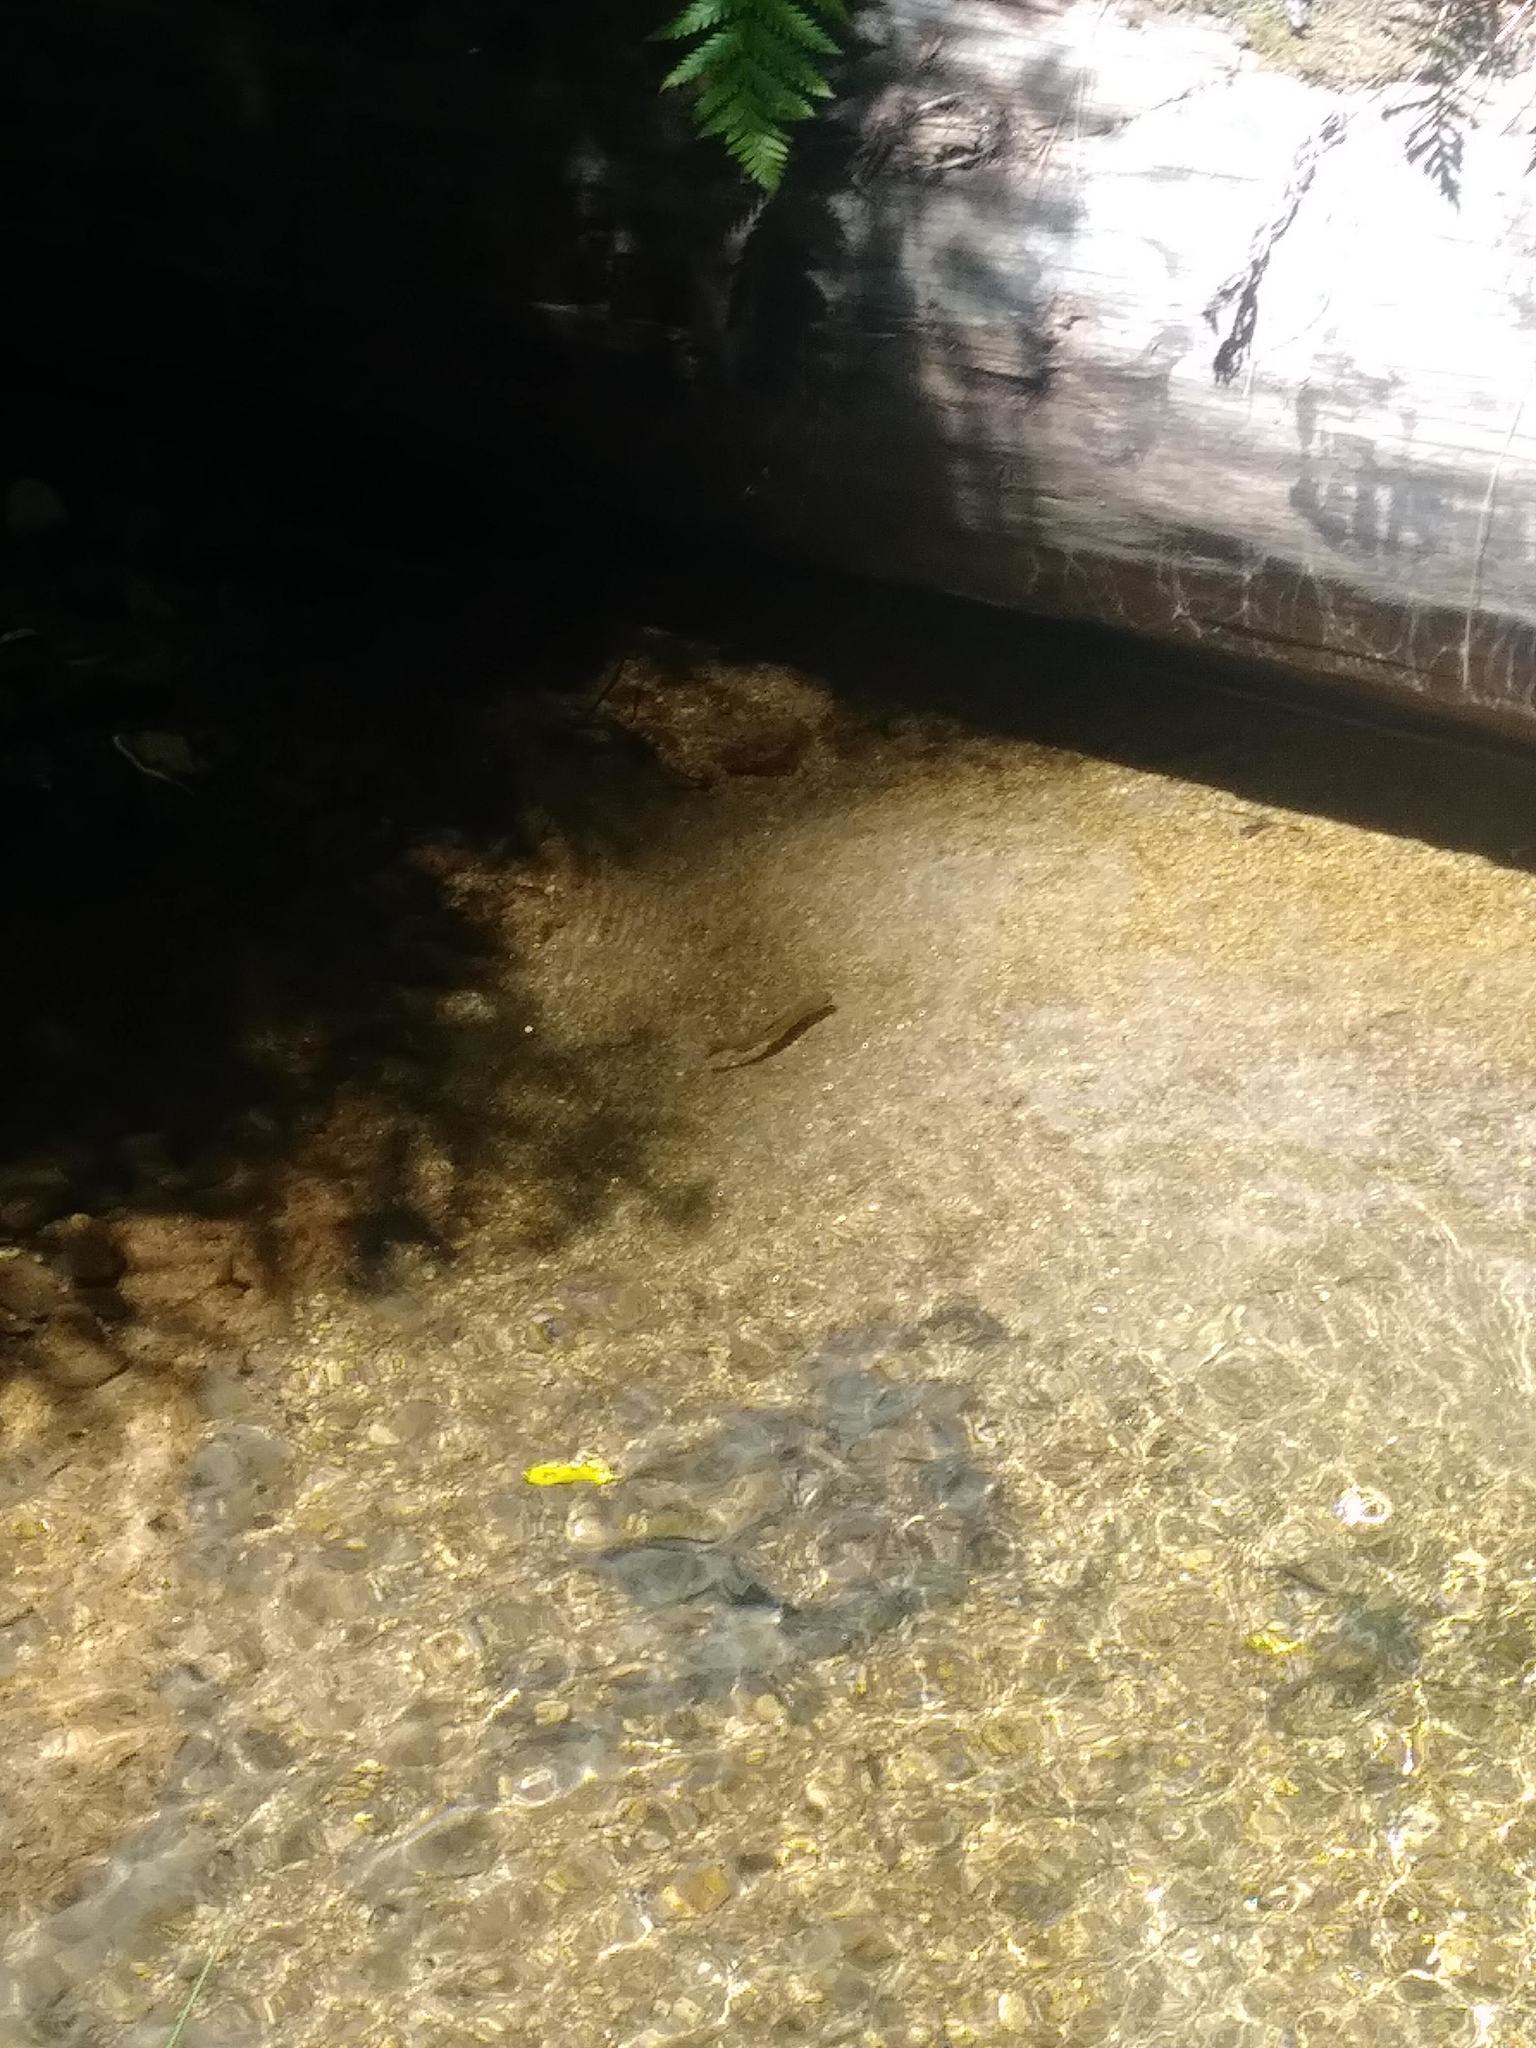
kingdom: Animalia
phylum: Chordata
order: Salmoniformes
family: Salmonidae
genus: Oncorhynchus
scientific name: Oncorhynchus mykiss
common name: Rainbow trout
